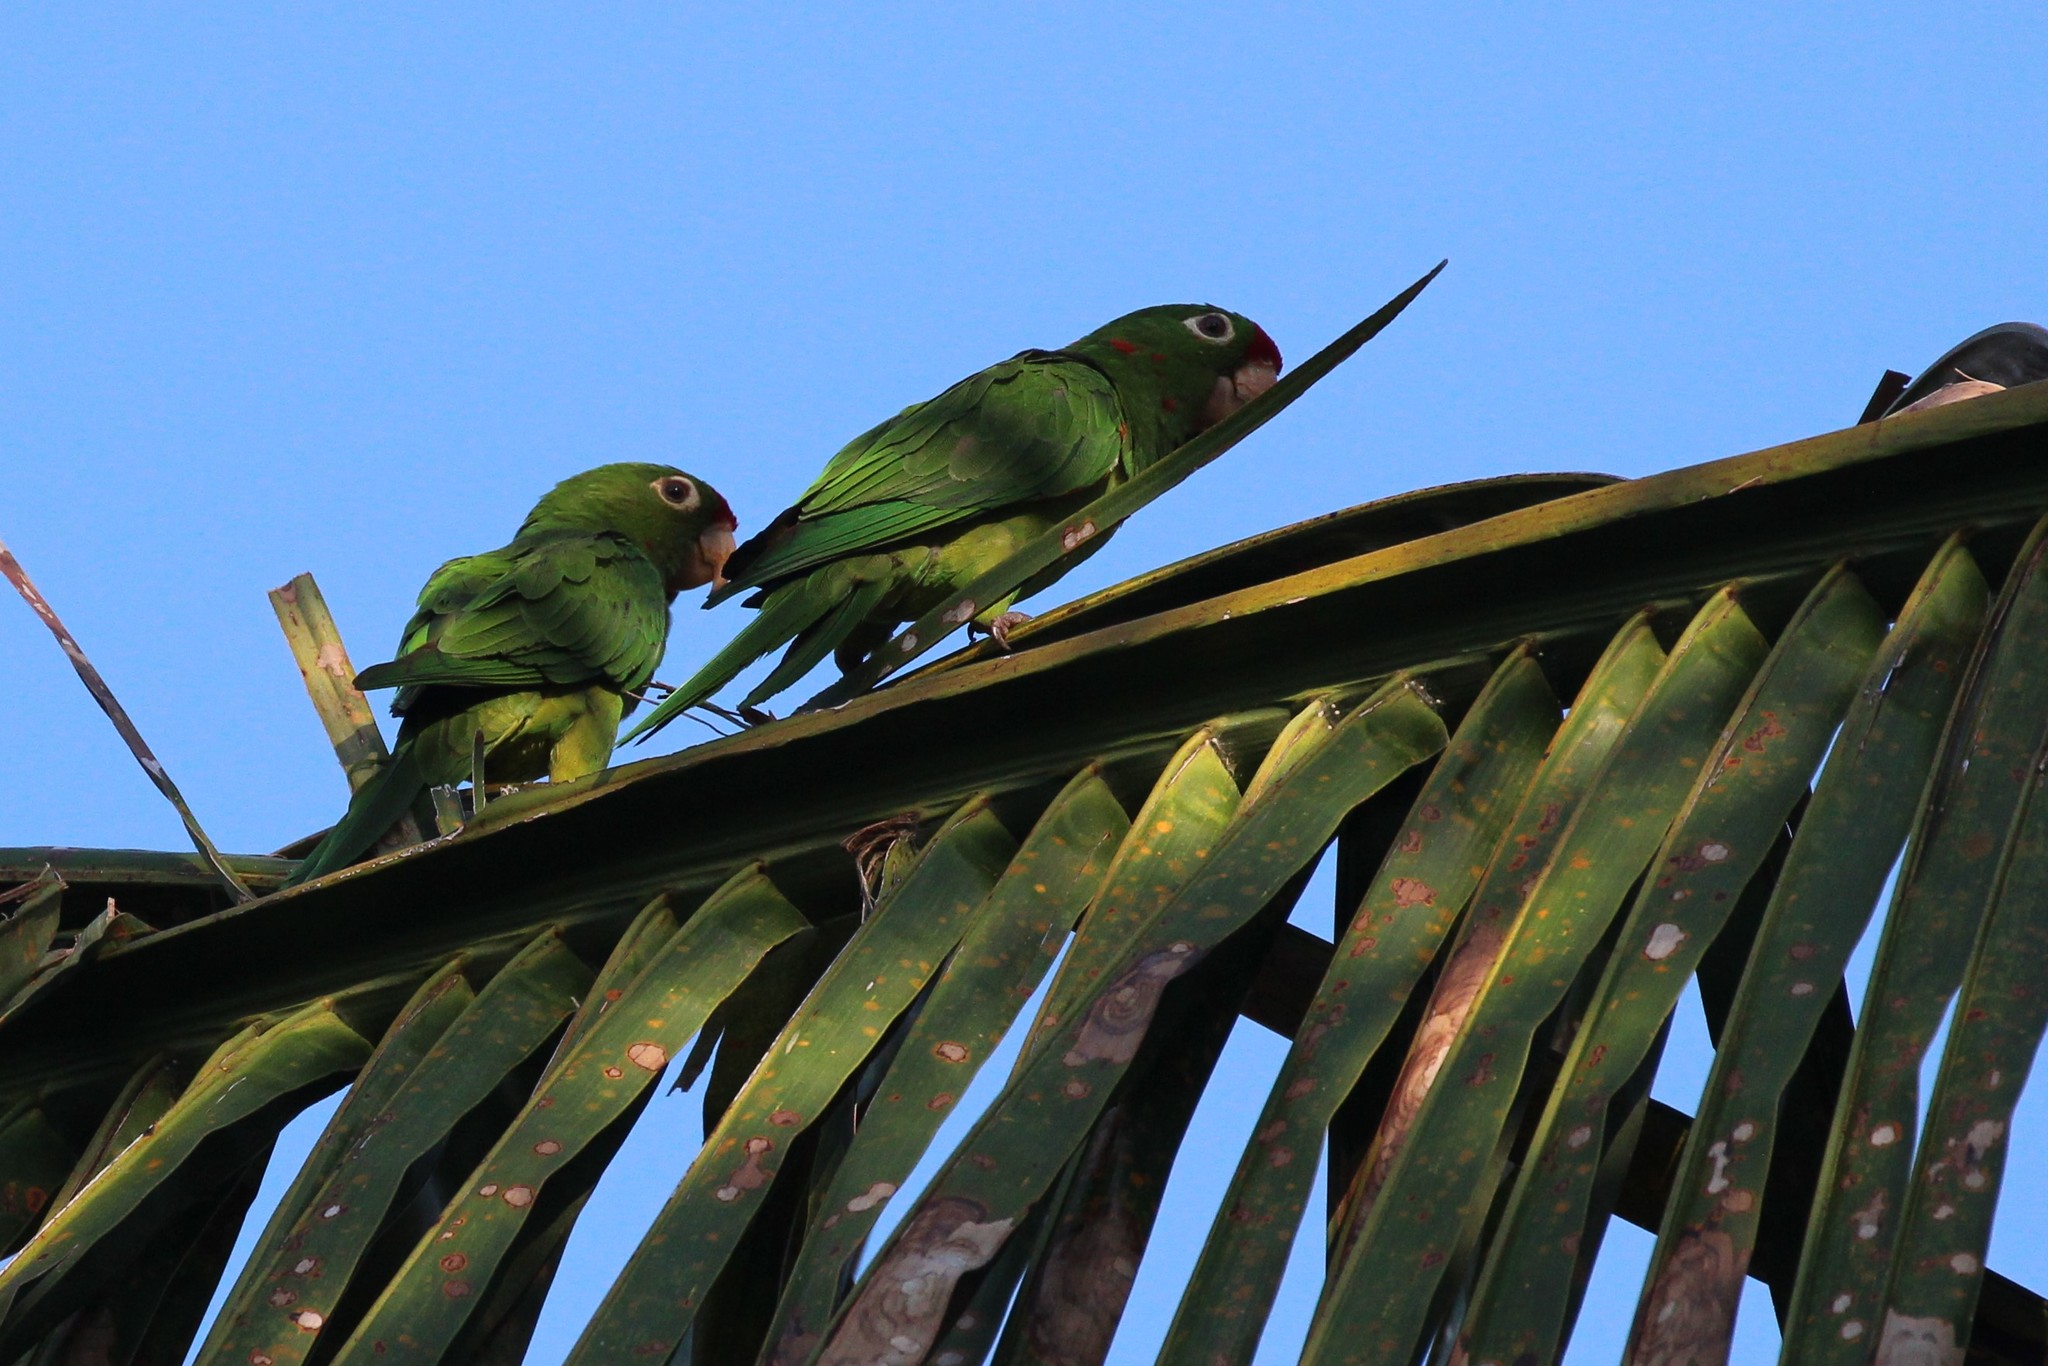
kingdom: Animalia
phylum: Chordata
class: Aves
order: Psittaciformes
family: Psittacidae
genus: Aratinga
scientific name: Aratinga finschi
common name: Crimson-fronted parakeet
